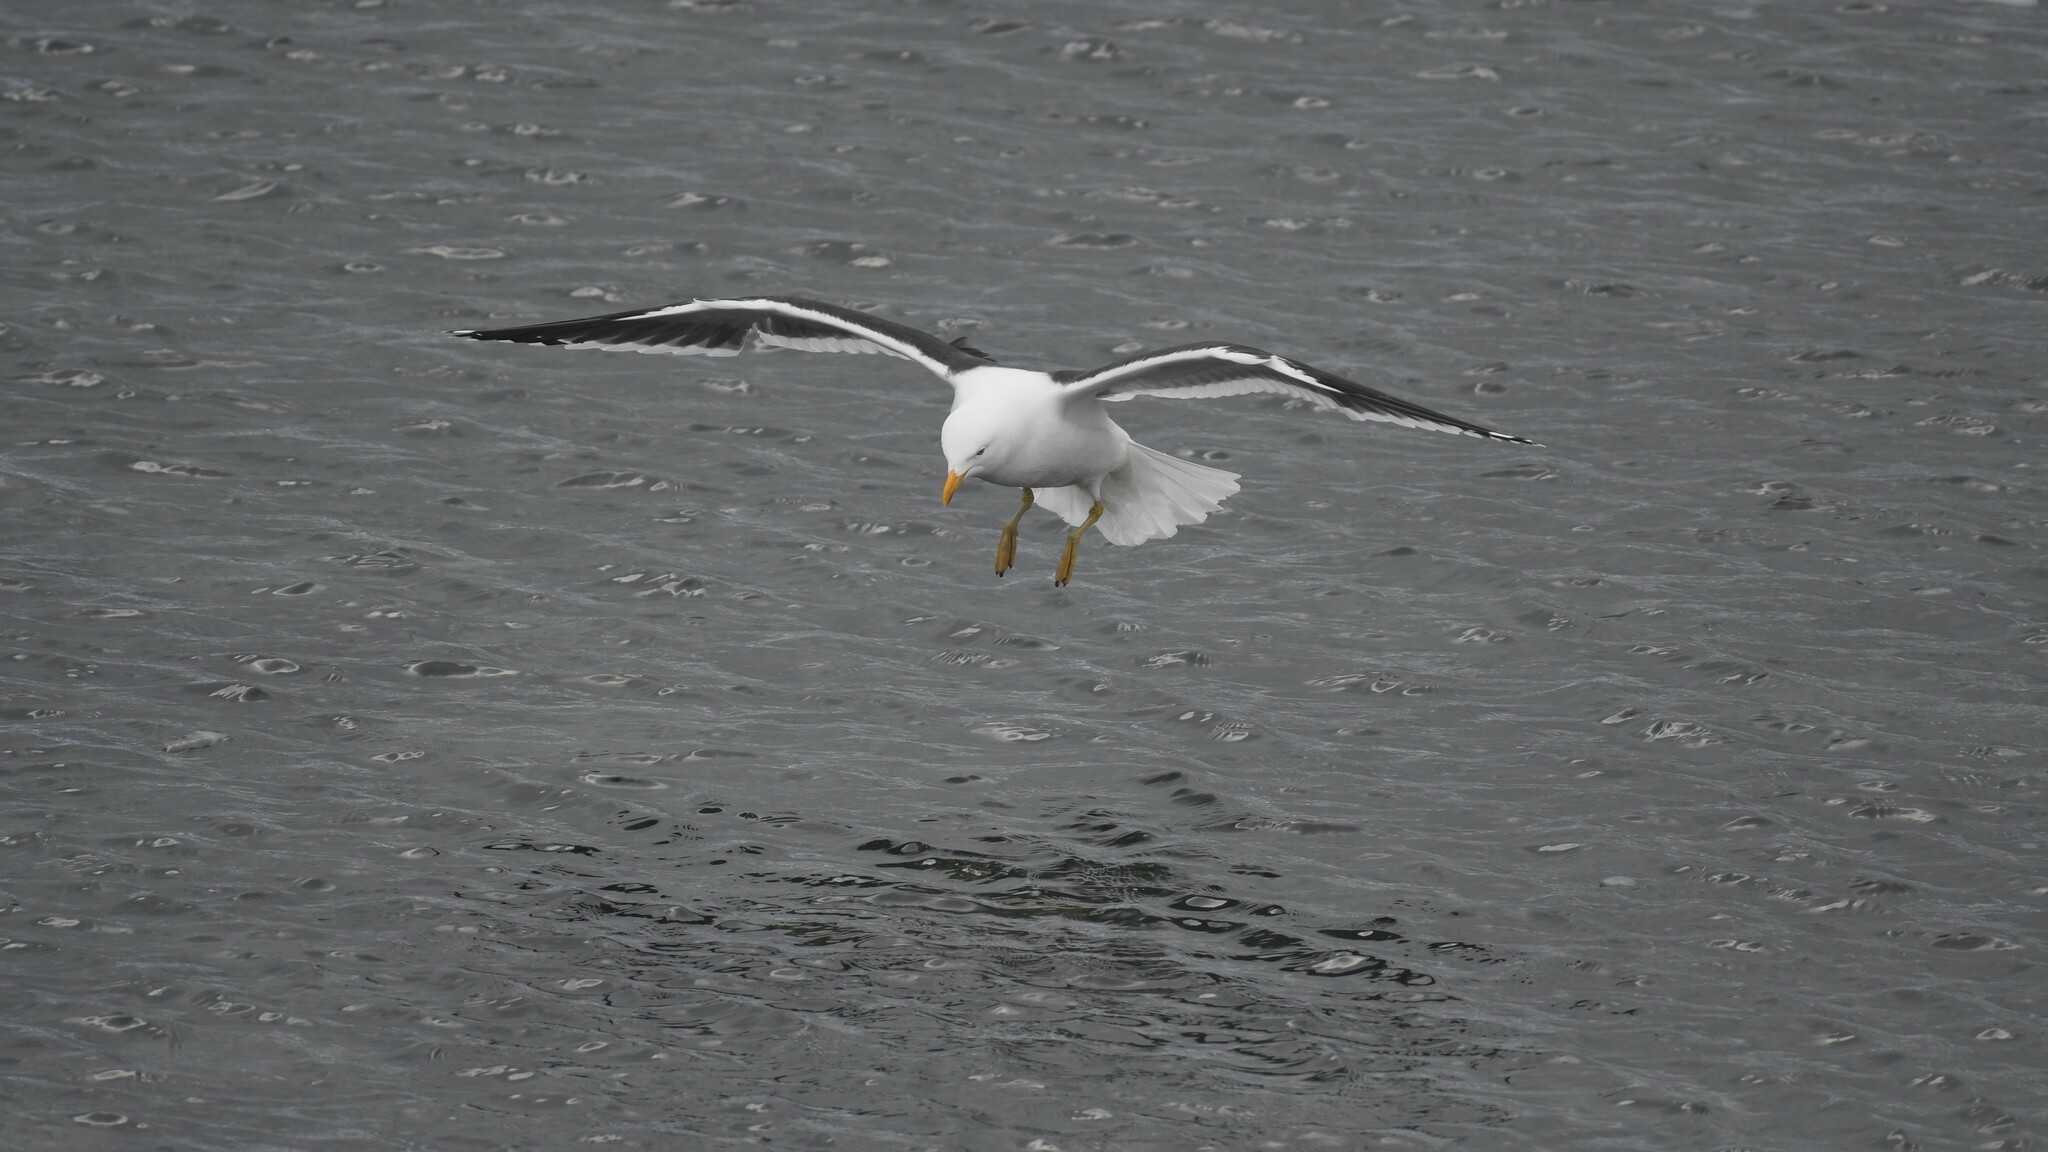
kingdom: Animalia
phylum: Chordata
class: Aves
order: Charadriiformes
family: Laridae
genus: Larus
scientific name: Larus dominicanus
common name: Kelp gull
